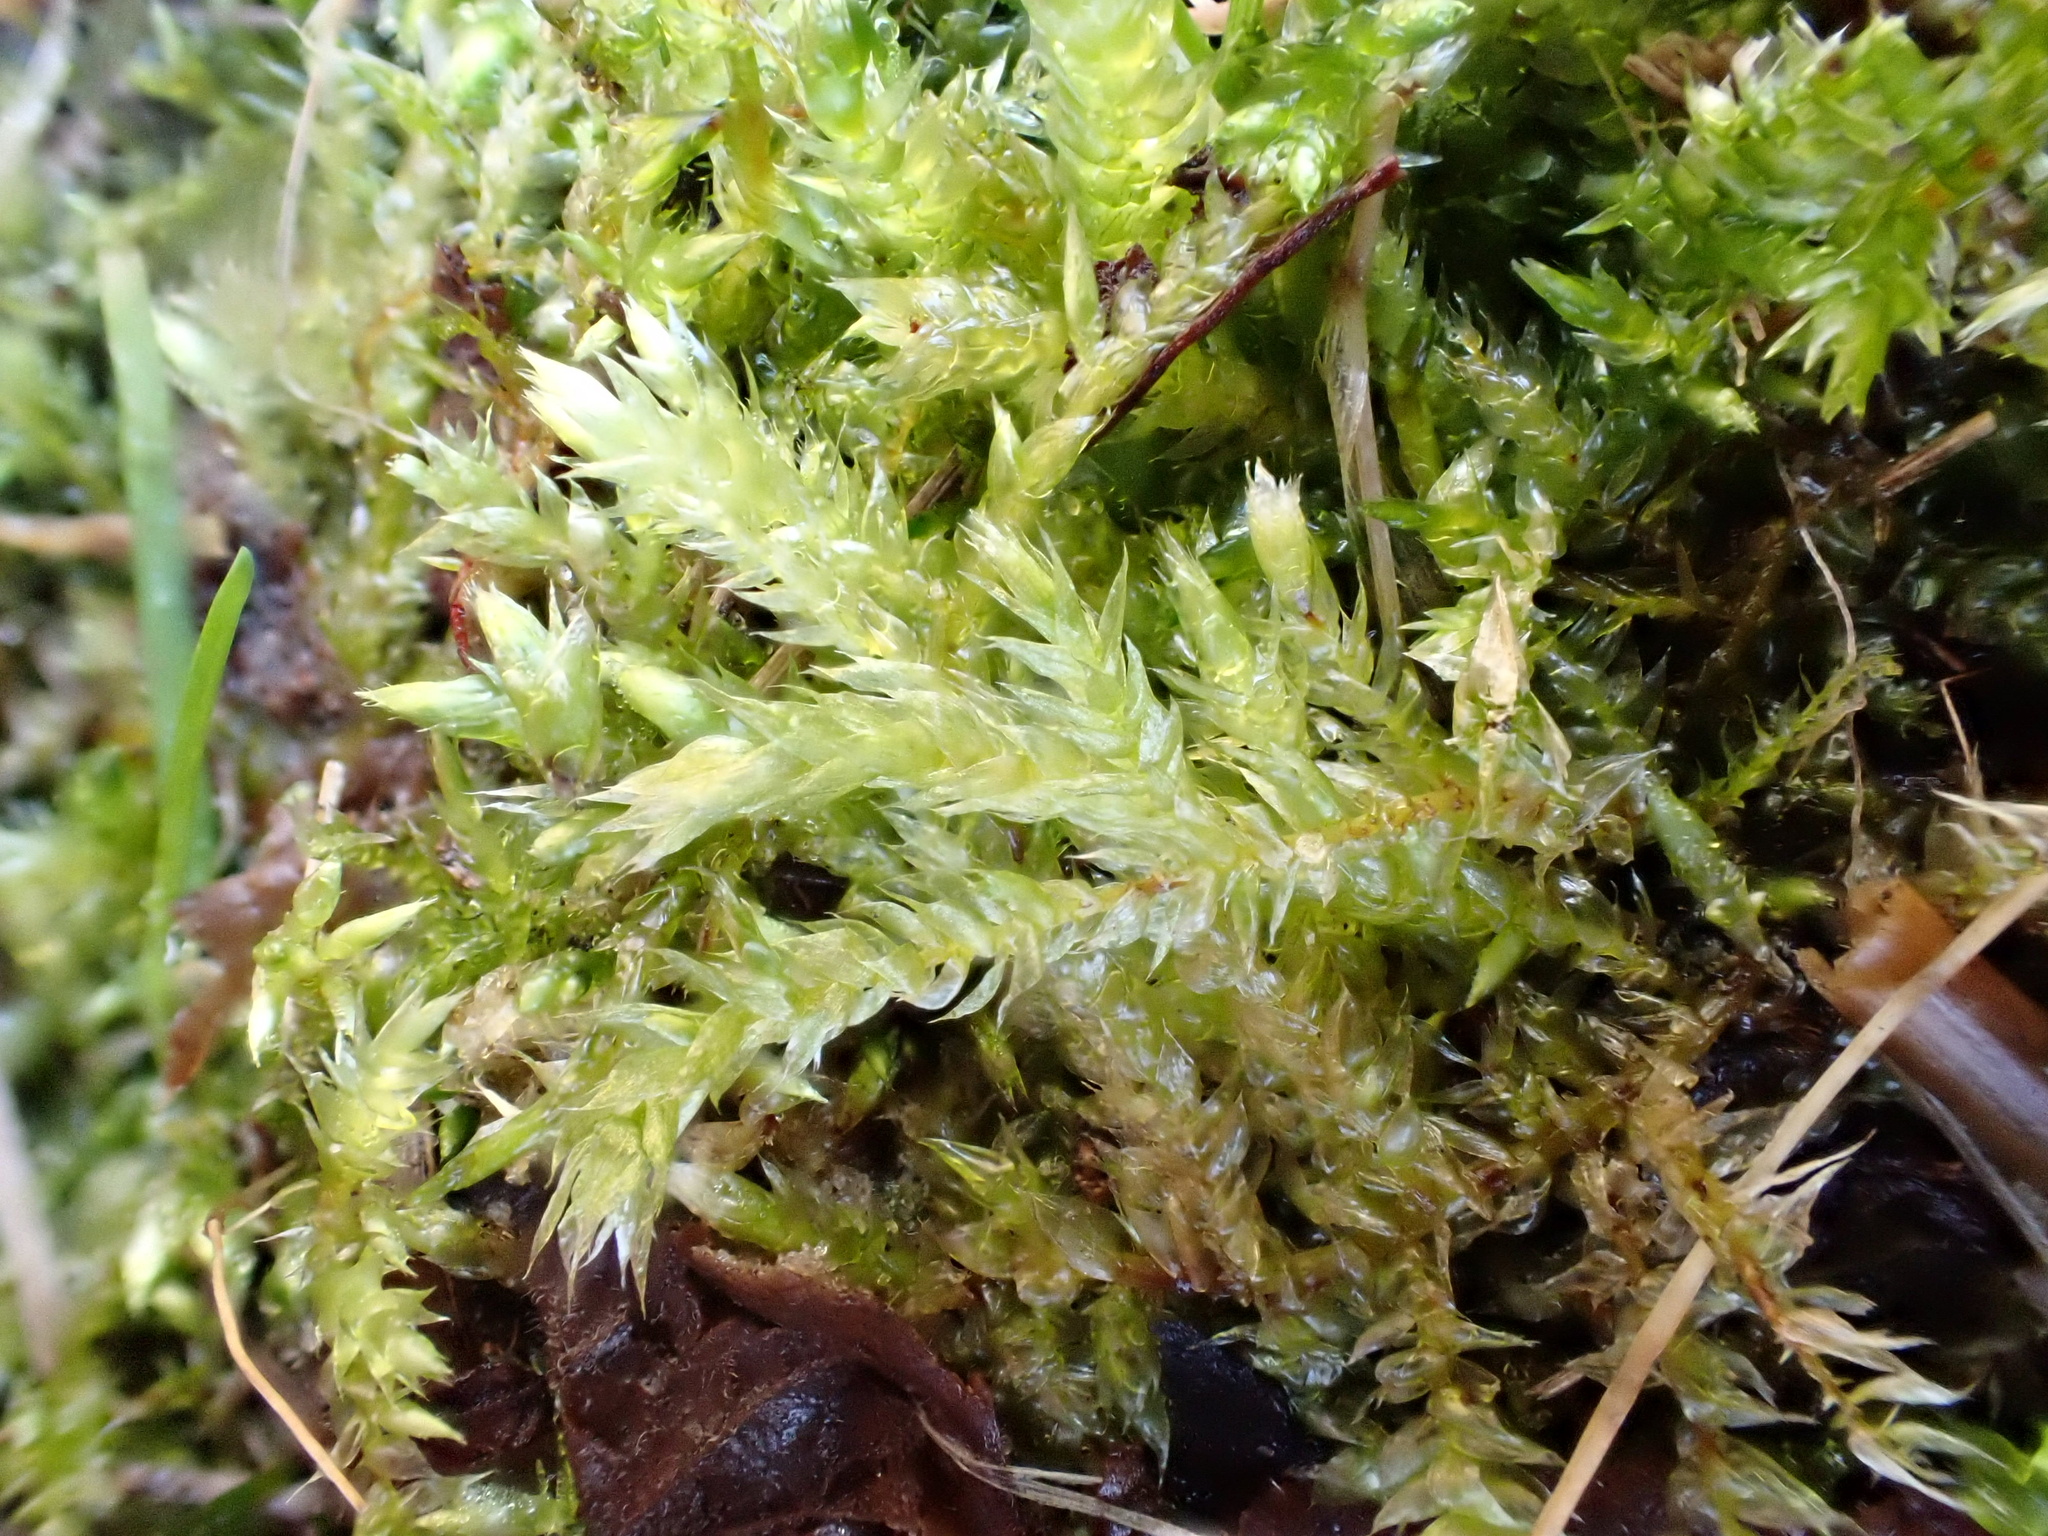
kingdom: Plantae
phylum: Bryophyta
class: Bryopsida
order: Hypnales
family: Brachytheciaceae
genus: Brachythecium
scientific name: Brachythecium rutabulum
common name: Rough-stalked feather-moss
